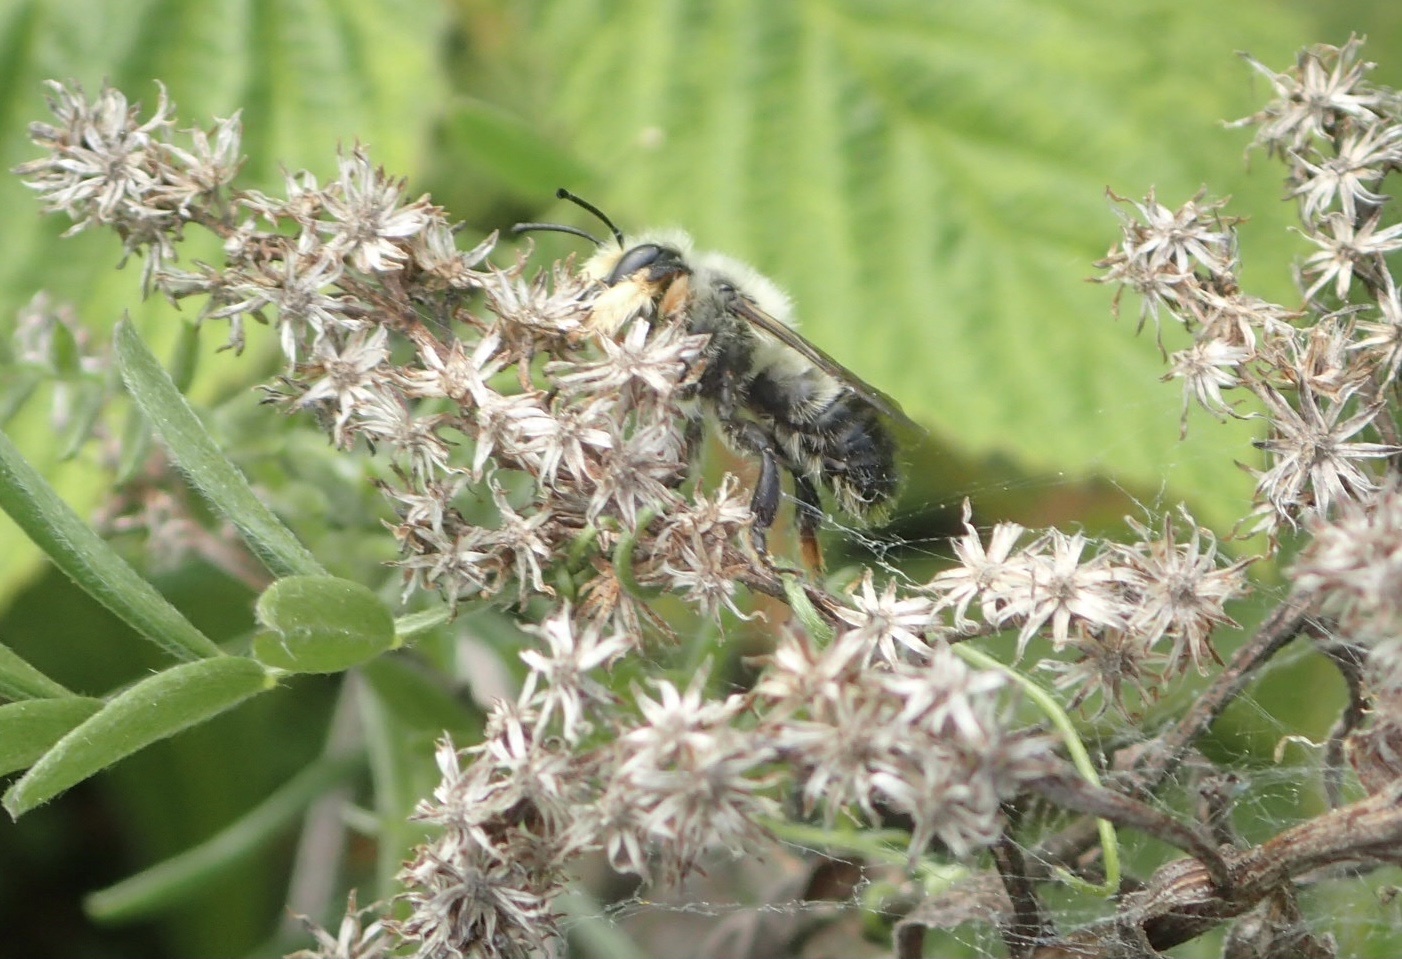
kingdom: Animalia
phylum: Arthropoda
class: Insecta
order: Hymenoptera
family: Megachilidae
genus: Megachile
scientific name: Megachile melanophaea
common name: Black-and-gray leafcutter bee
